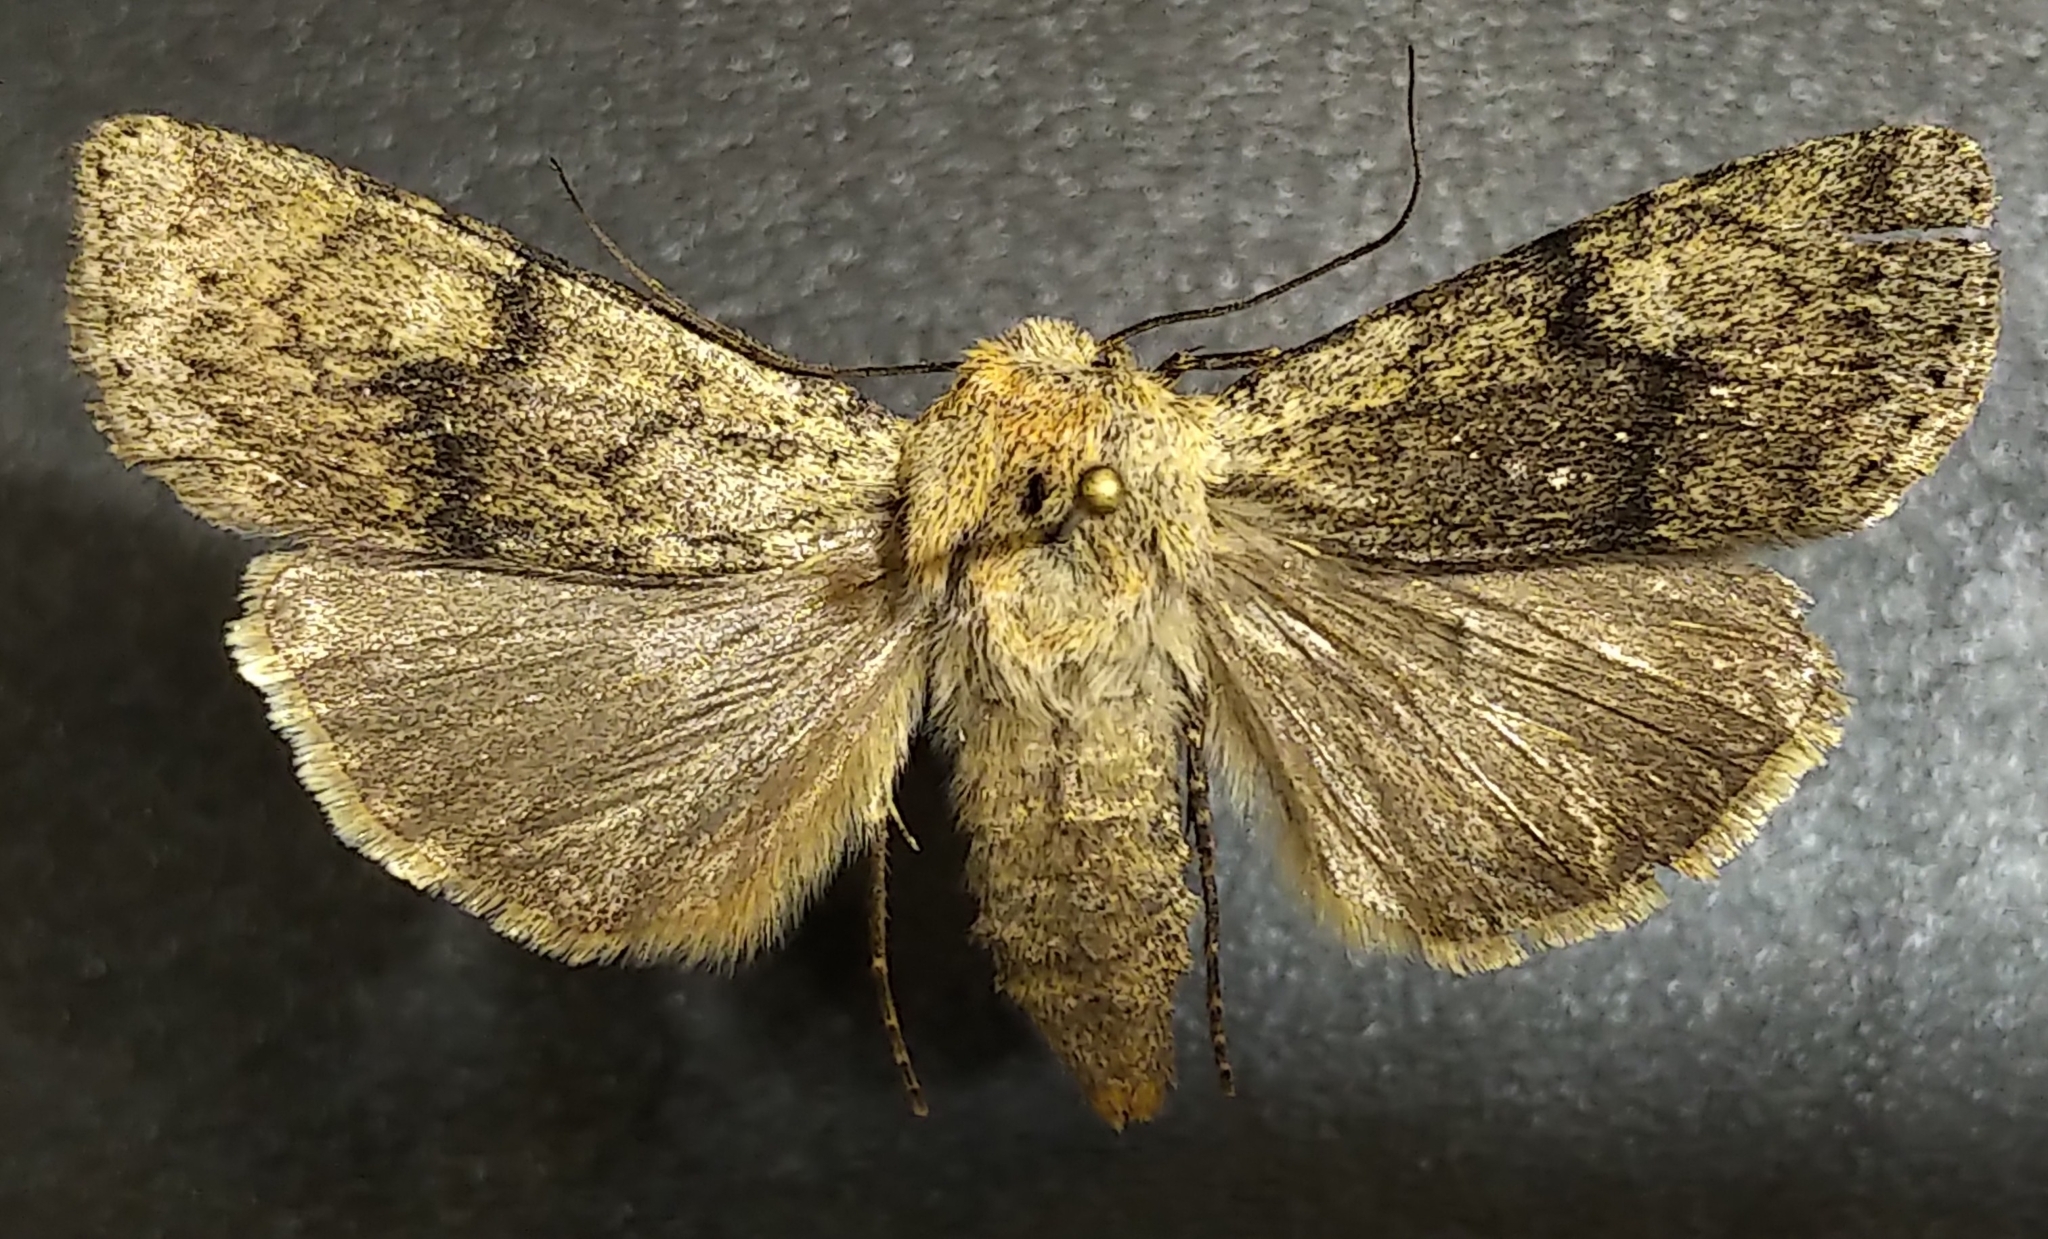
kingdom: Animalia
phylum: Arthropoda
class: Insecta
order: Lepidoptera
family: Noctuidae
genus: Euxoa
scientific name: Euxoa vallus
